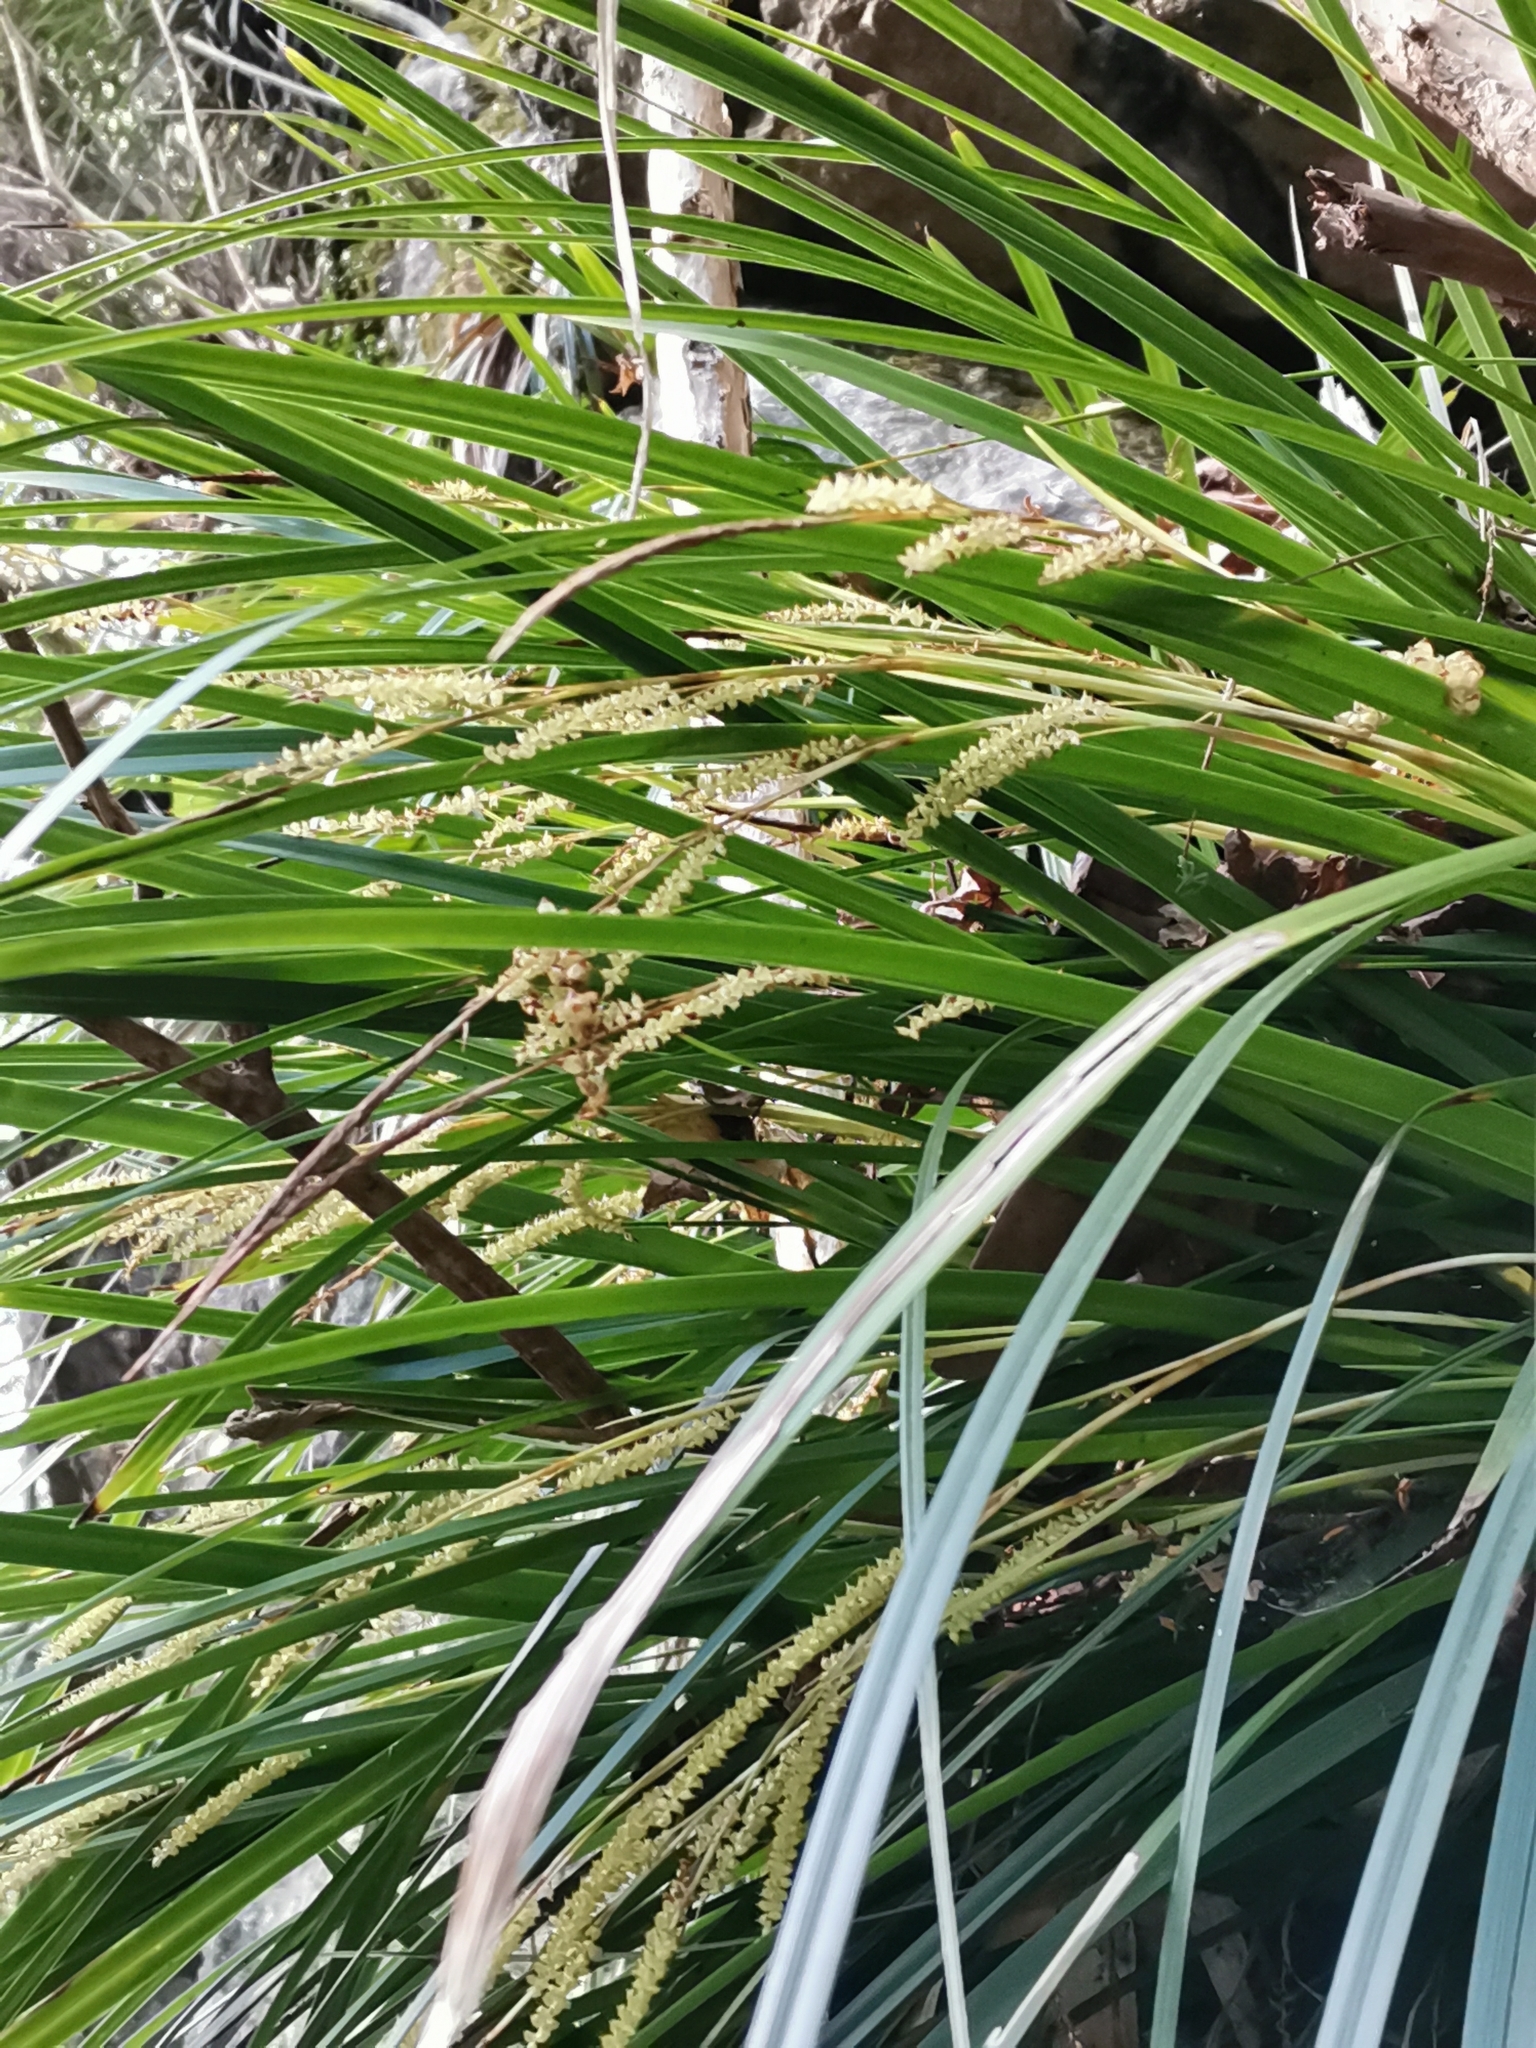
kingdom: Plantae
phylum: Tracheophyta
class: Liliopsida
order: Poales
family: Cyperaceae
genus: Carex
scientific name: Carex morrowii
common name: Japanese sedge
